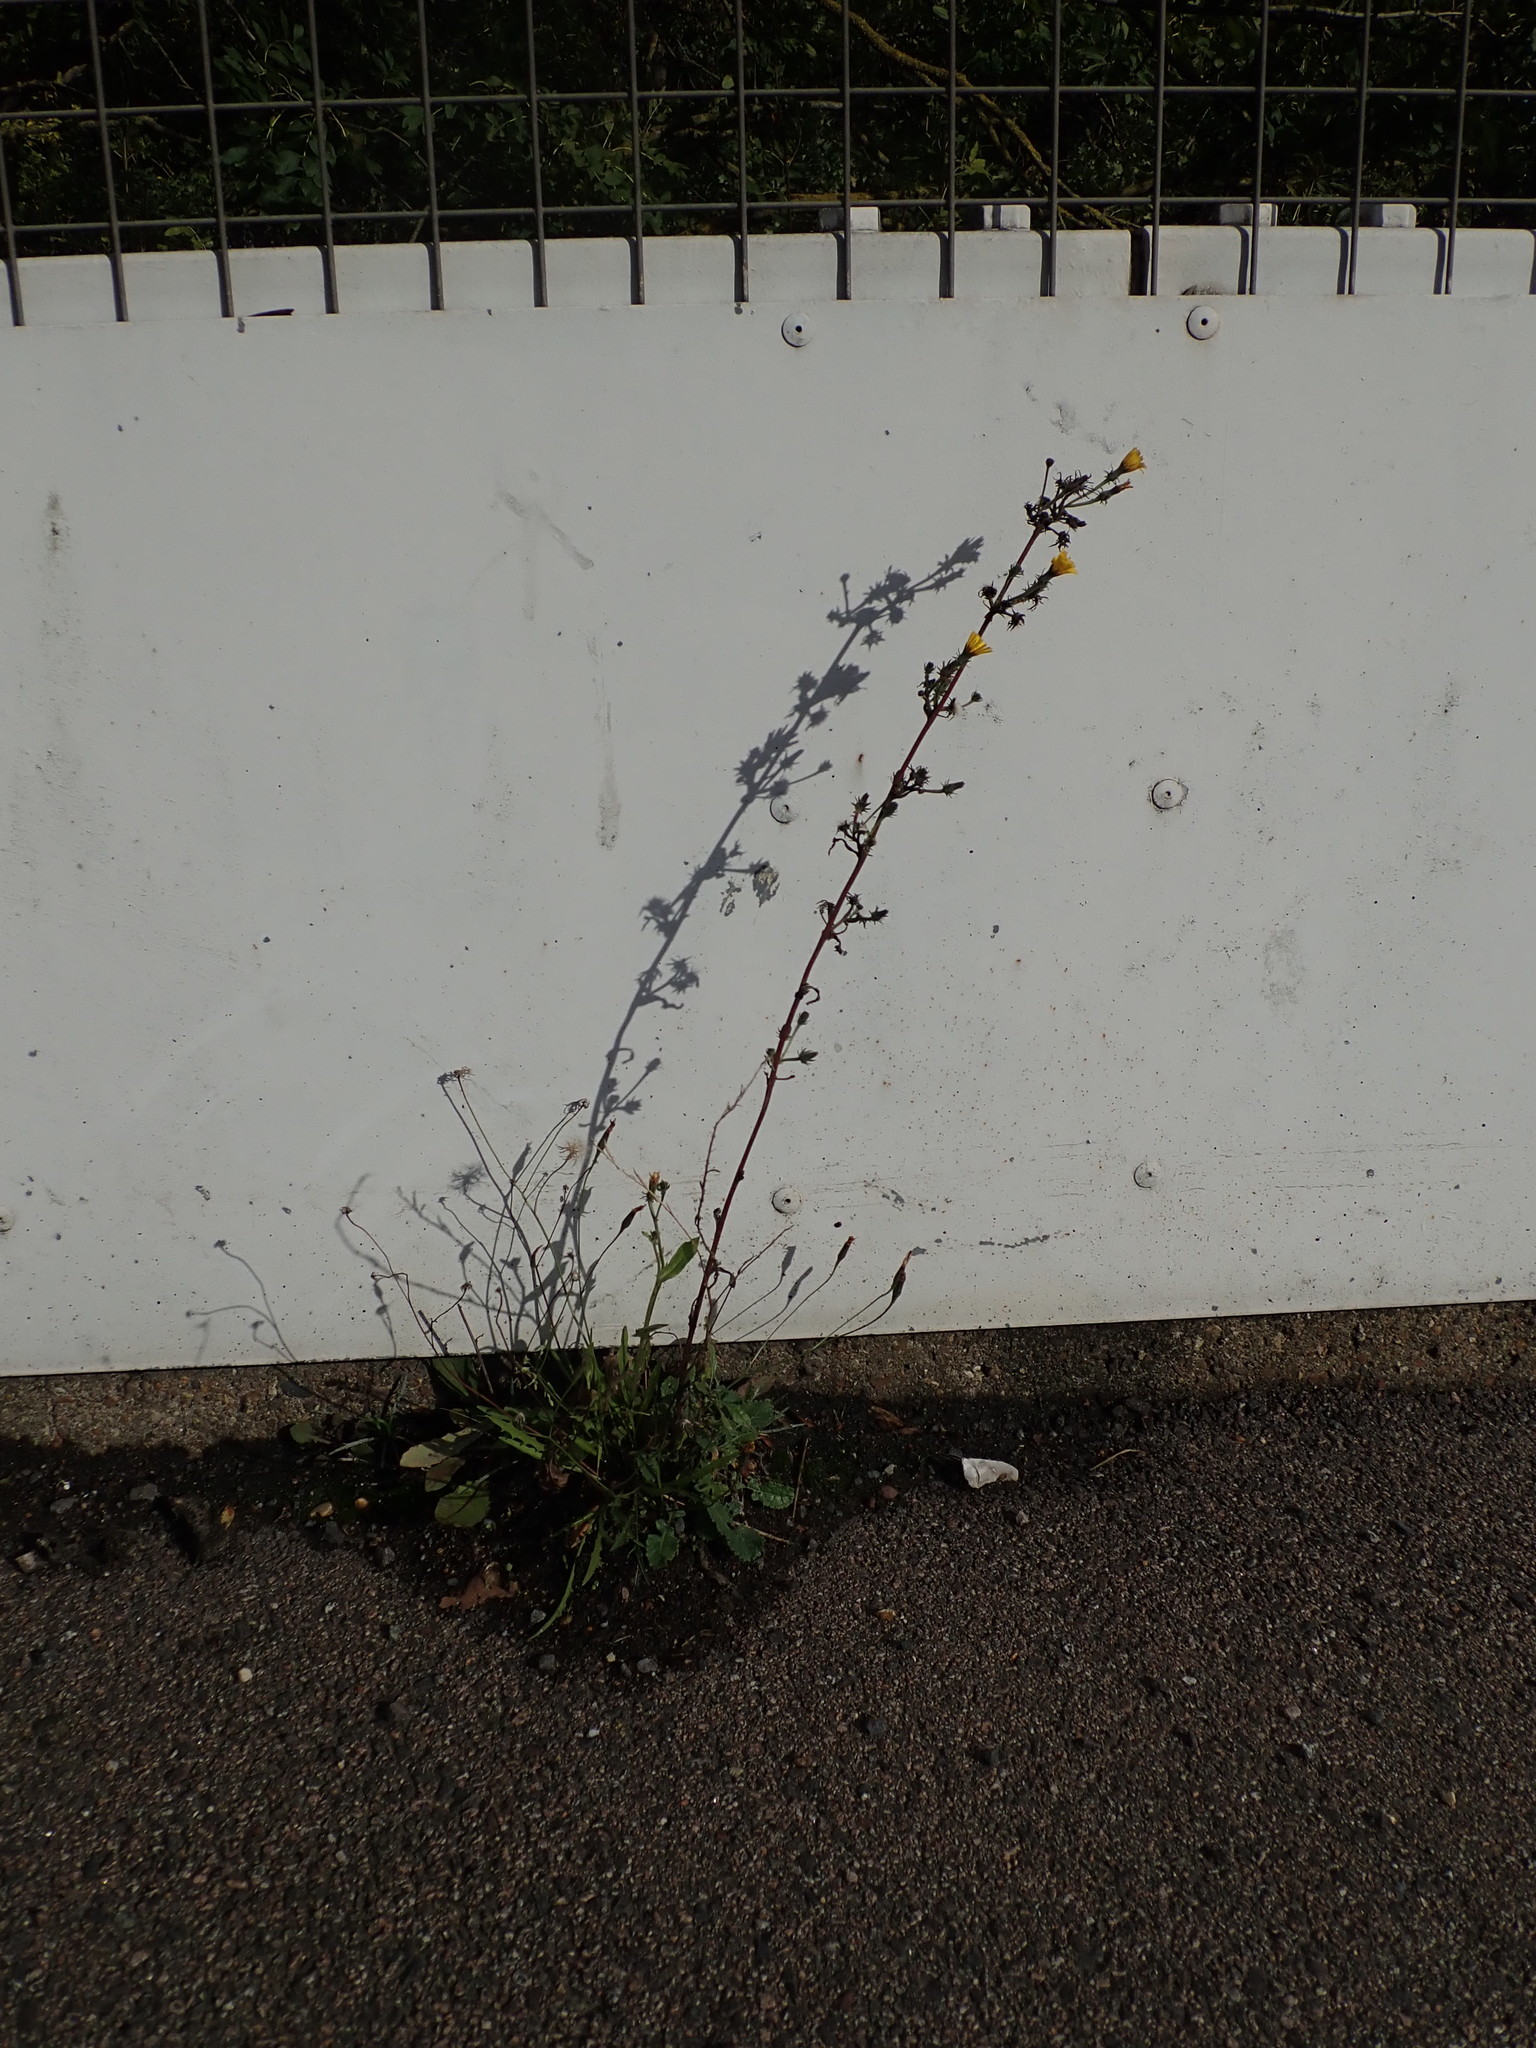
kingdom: Plantae
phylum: Tracheophyta
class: Magnoliopsida
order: Asterales
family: Asteraceae
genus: Picris
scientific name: Picris hieracioides
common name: Hawkweed oxtongue
